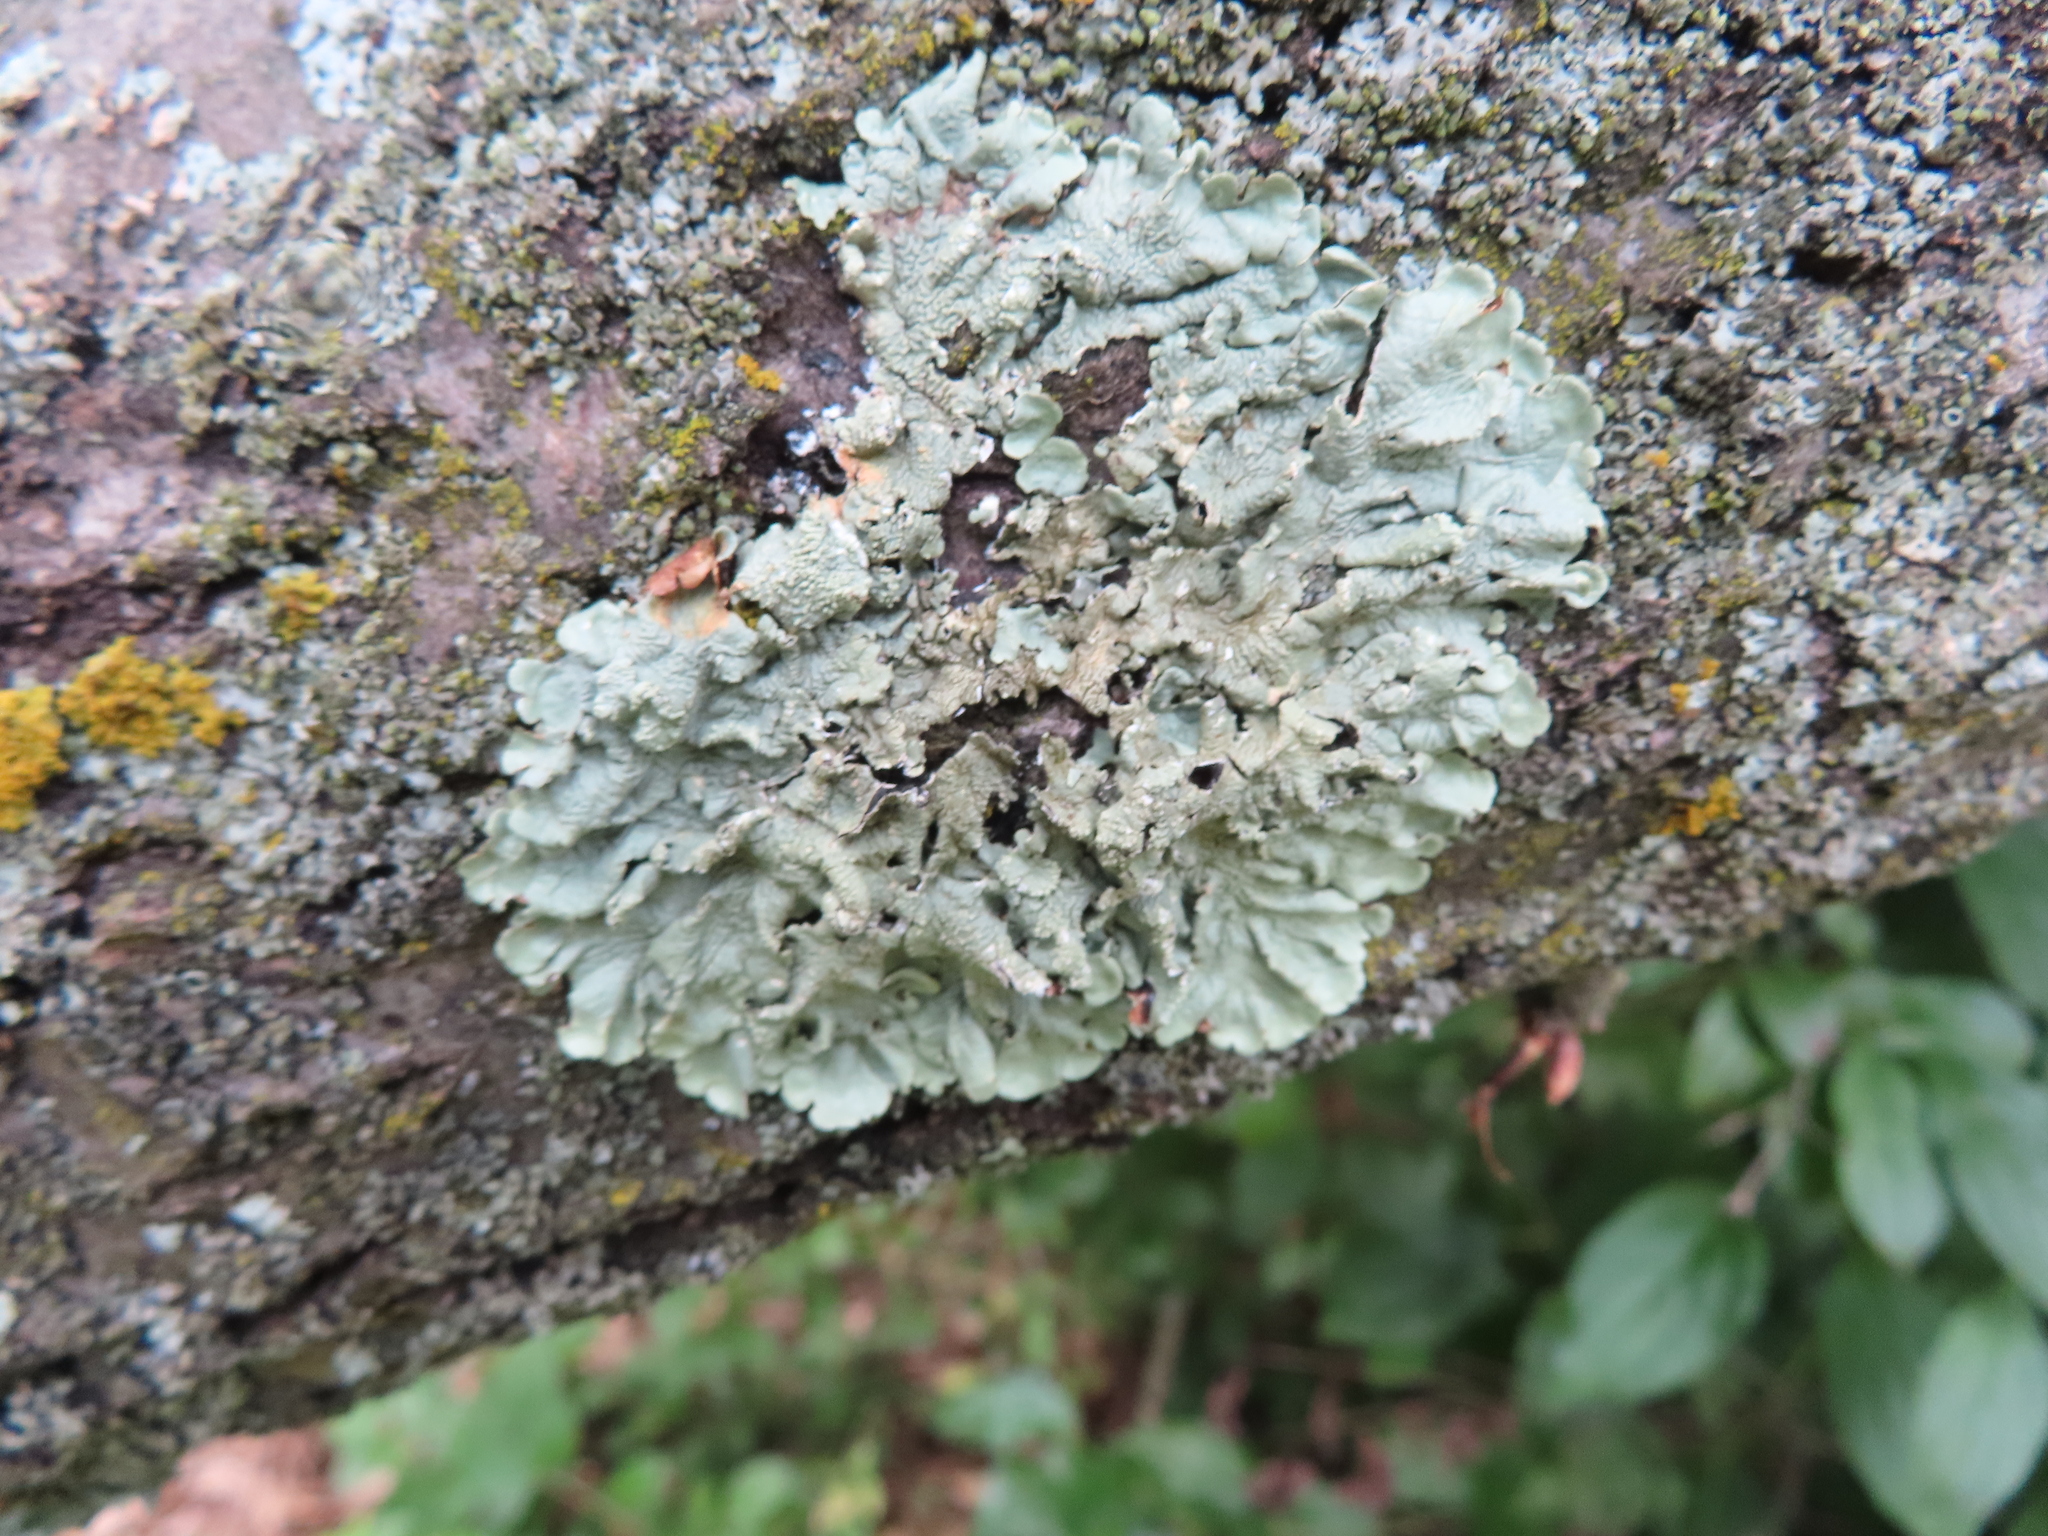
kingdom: Fungi
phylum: Ascomycota
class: Lecanoromycetes
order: Lecanorales
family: Parmeliaceae
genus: Flavoparmelia
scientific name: Flavoparmelia caperata
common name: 40-mile per hour lichen
